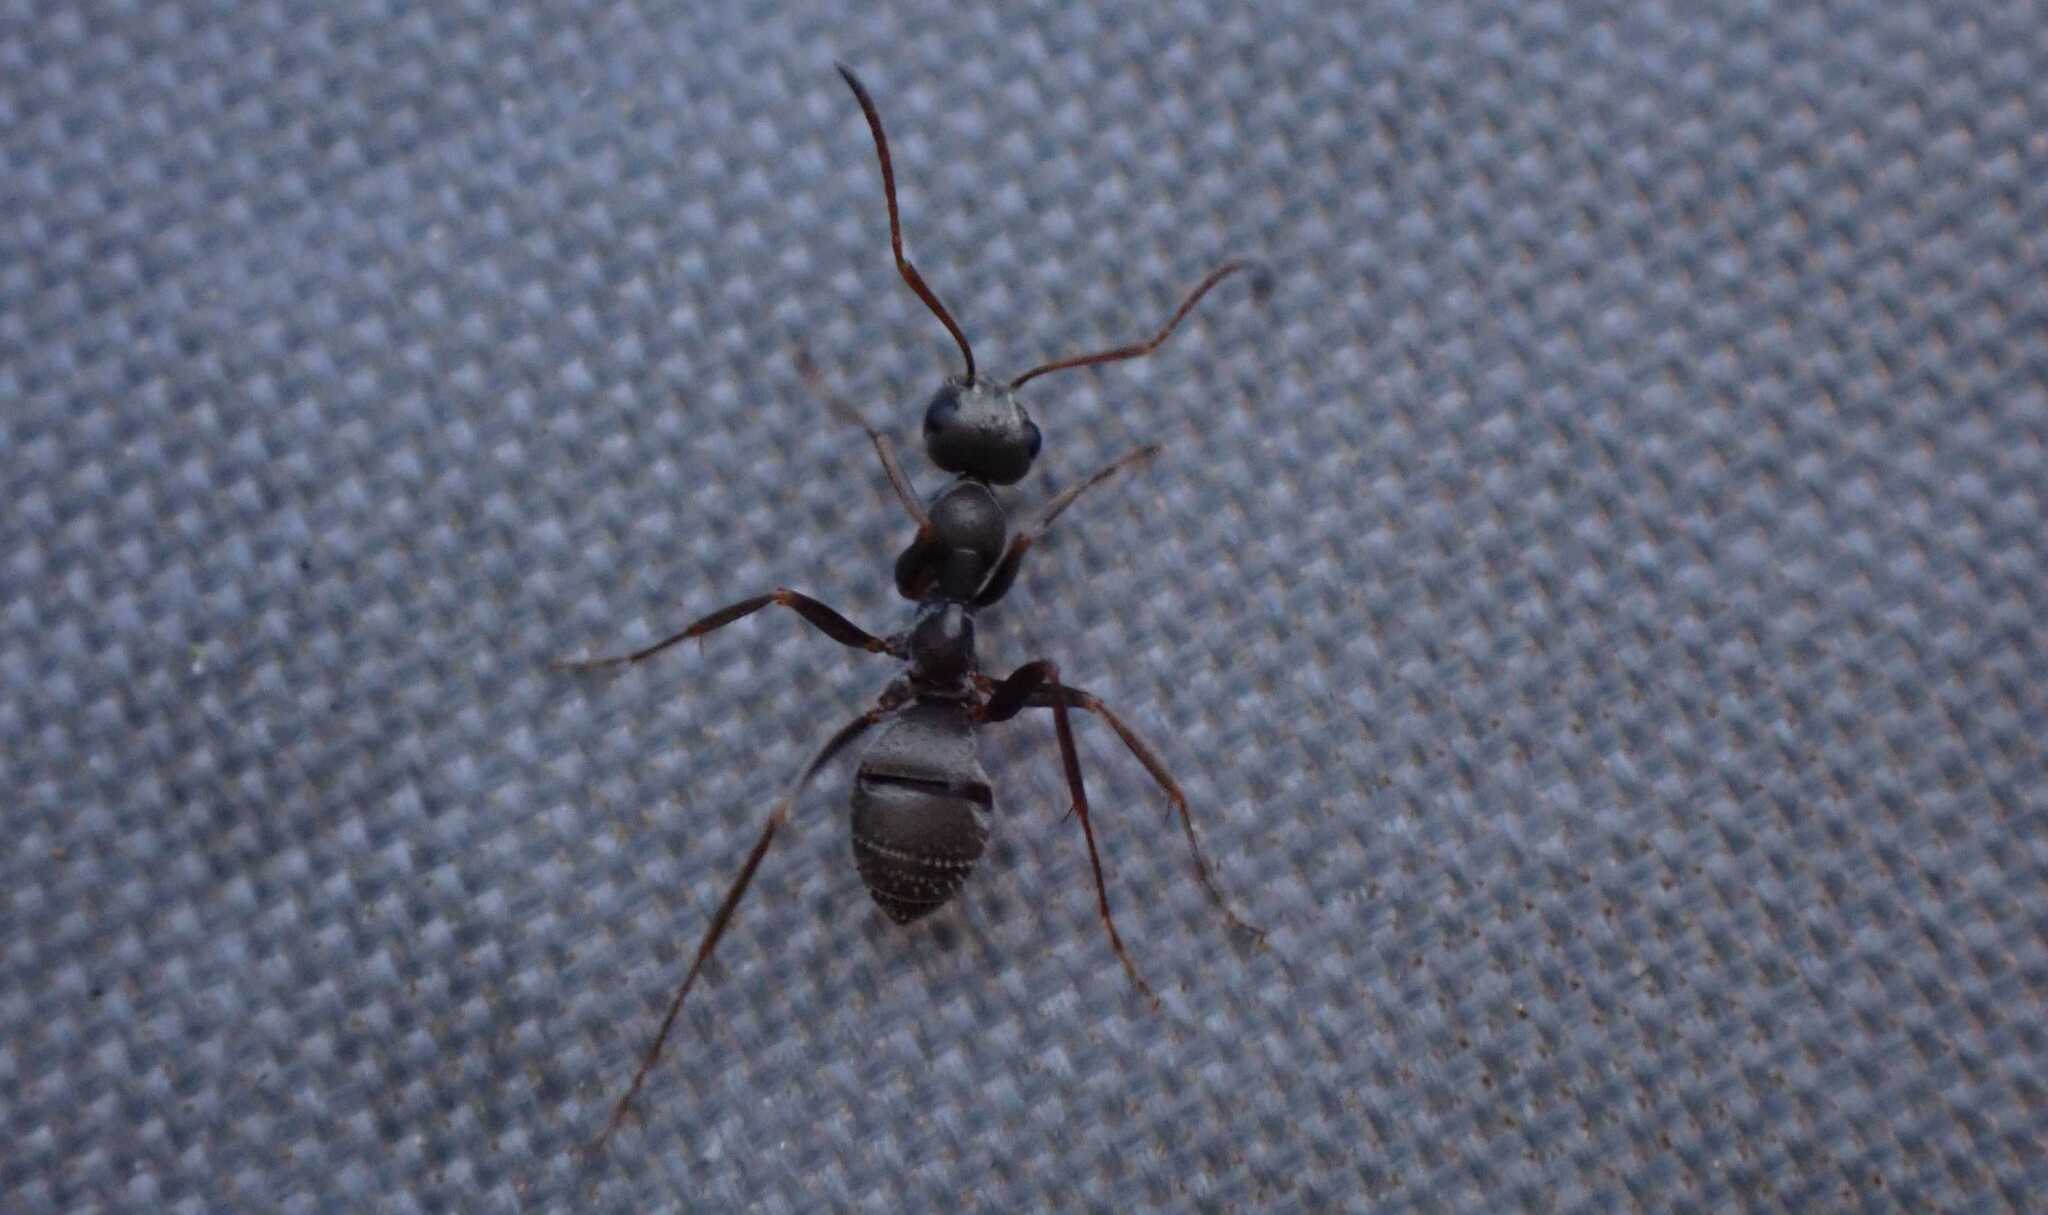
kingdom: Animalia
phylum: Arthropoda
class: Insecta
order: Hymenoptera
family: Formicidae
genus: Formica
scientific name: Formica cinerea
